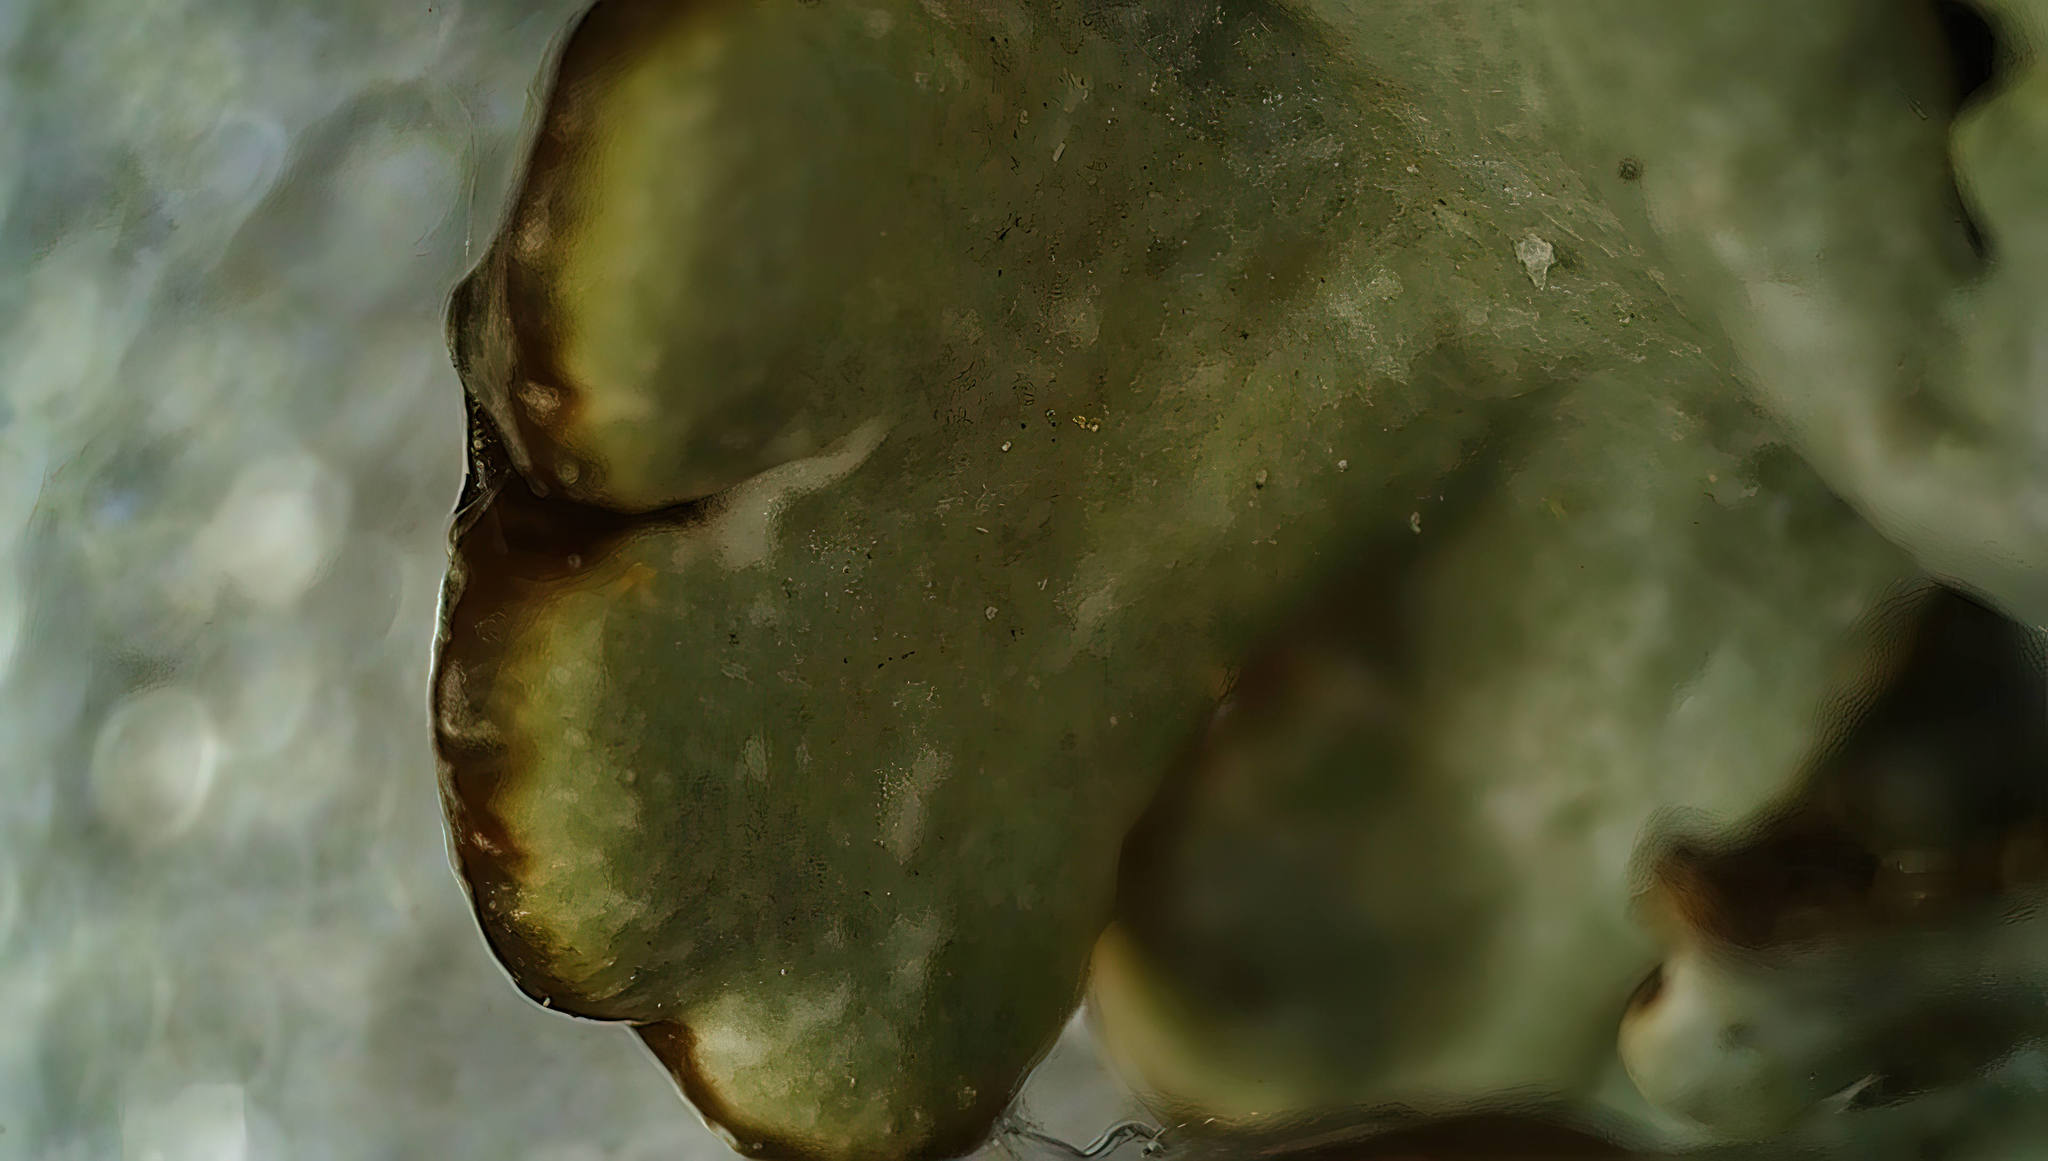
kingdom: Fungi
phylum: Ascomycota
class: Lecanoromycetes
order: Lecanorales
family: Parmeliaceae
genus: Hypogymnia
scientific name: Hypogymnia physodes
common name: Dark crottle
